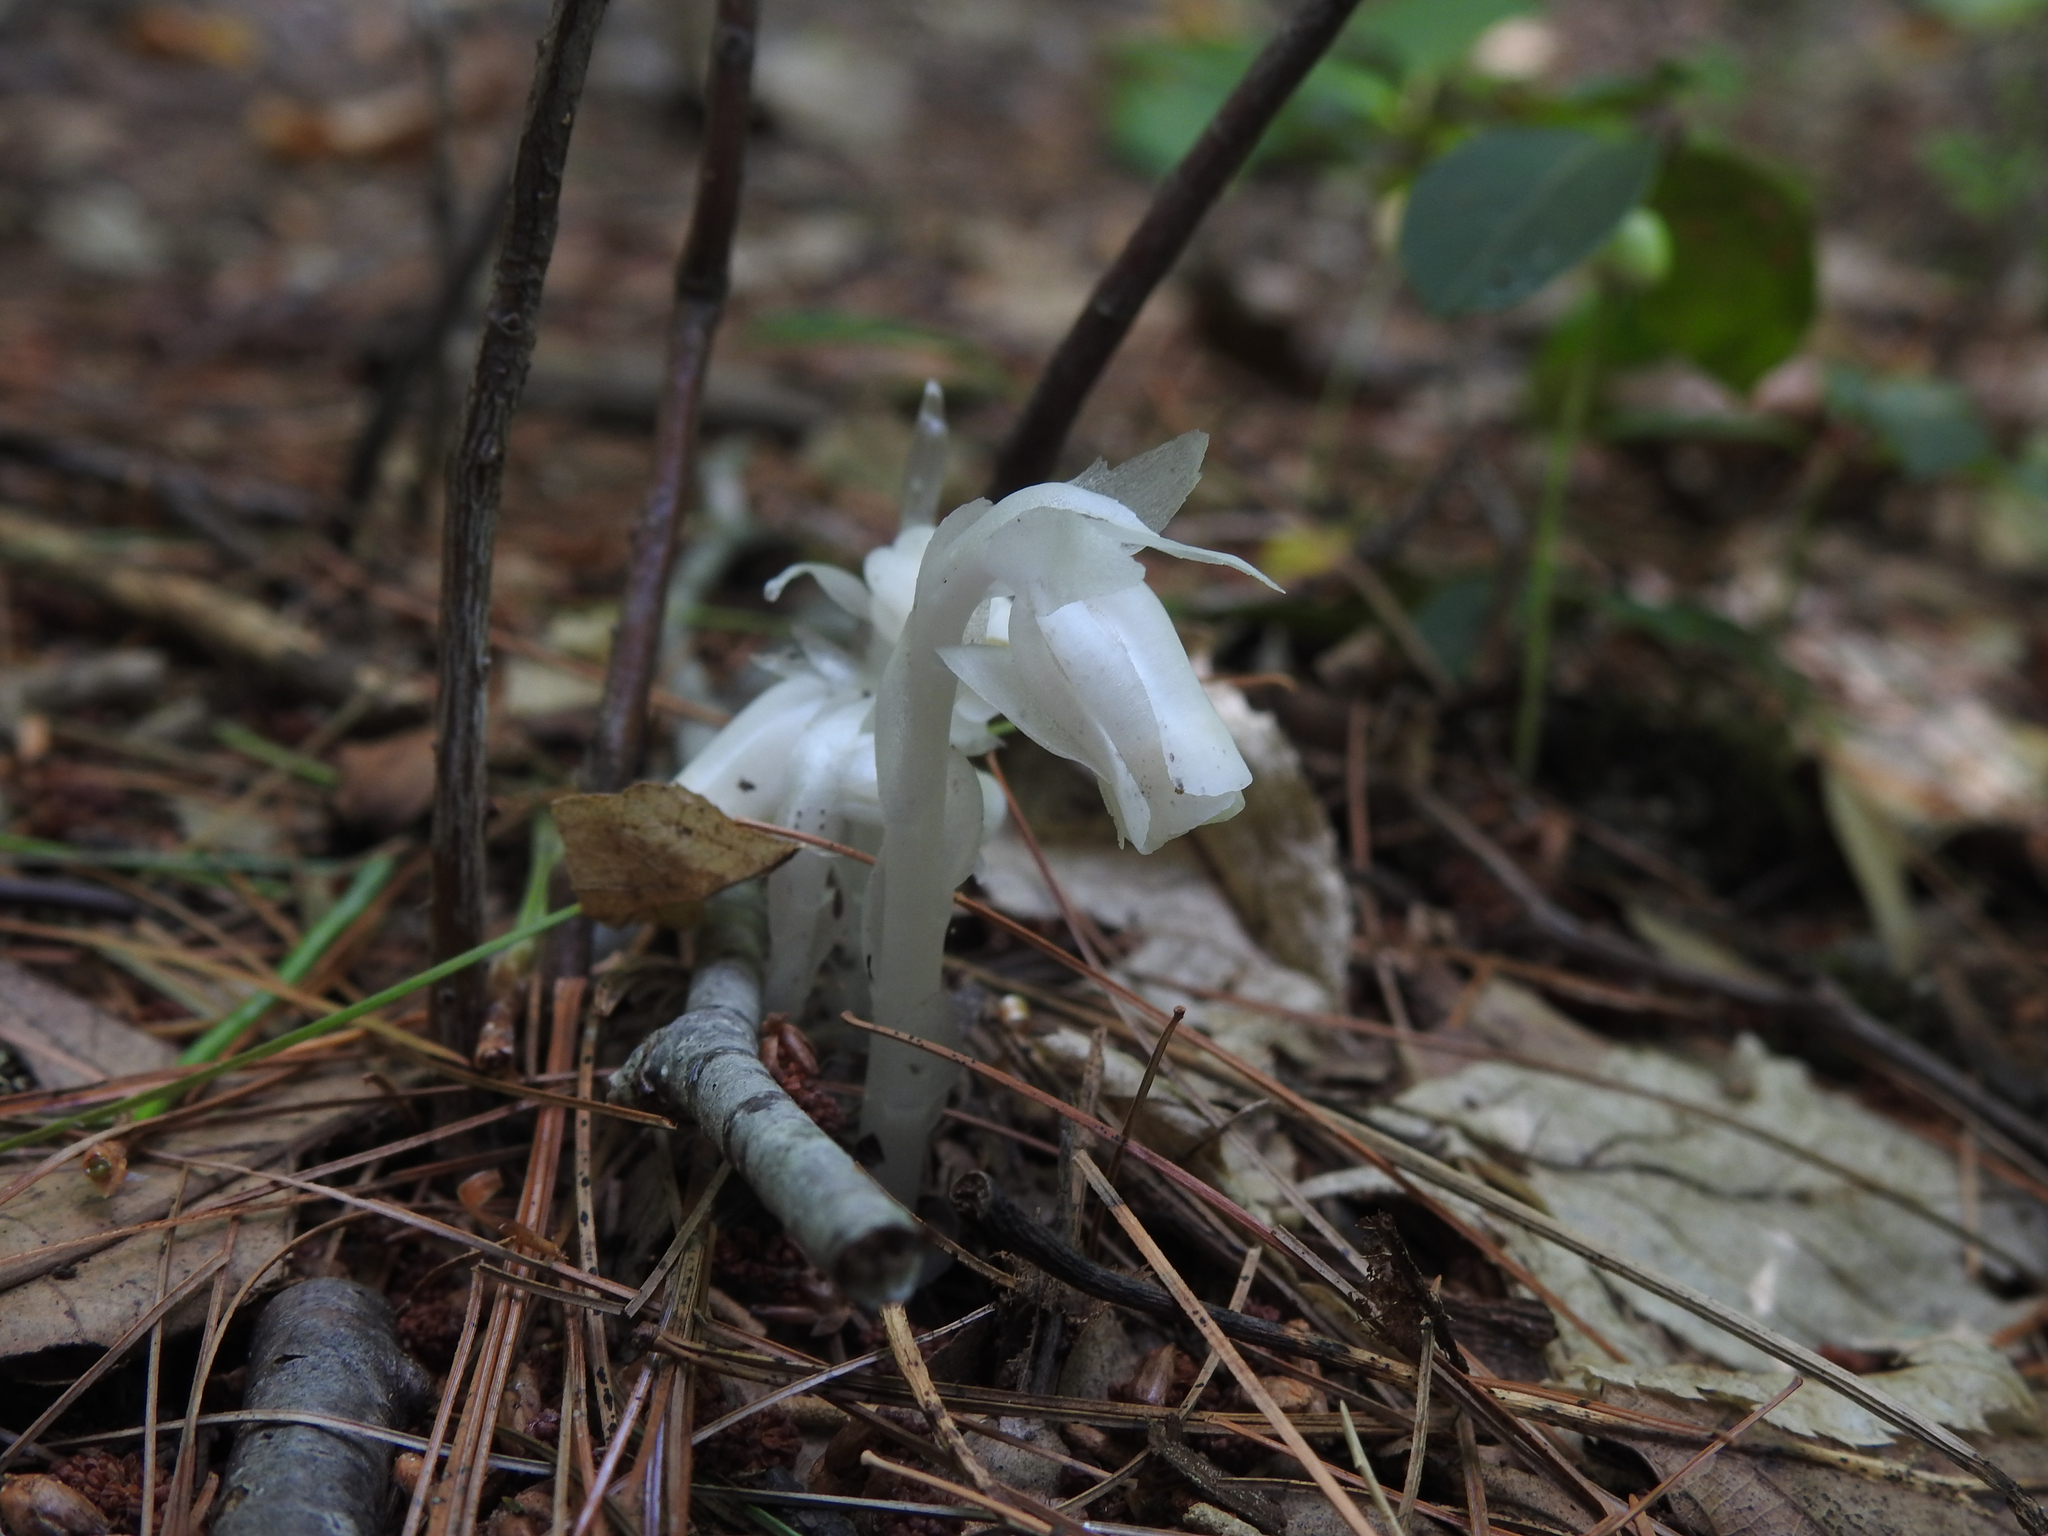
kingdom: Plantae
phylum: Tracheophyta
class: Magnoliopsida
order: Ericales
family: Ericaceae
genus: Monotropa
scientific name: Monotropa uniflora
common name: Convulsion root
